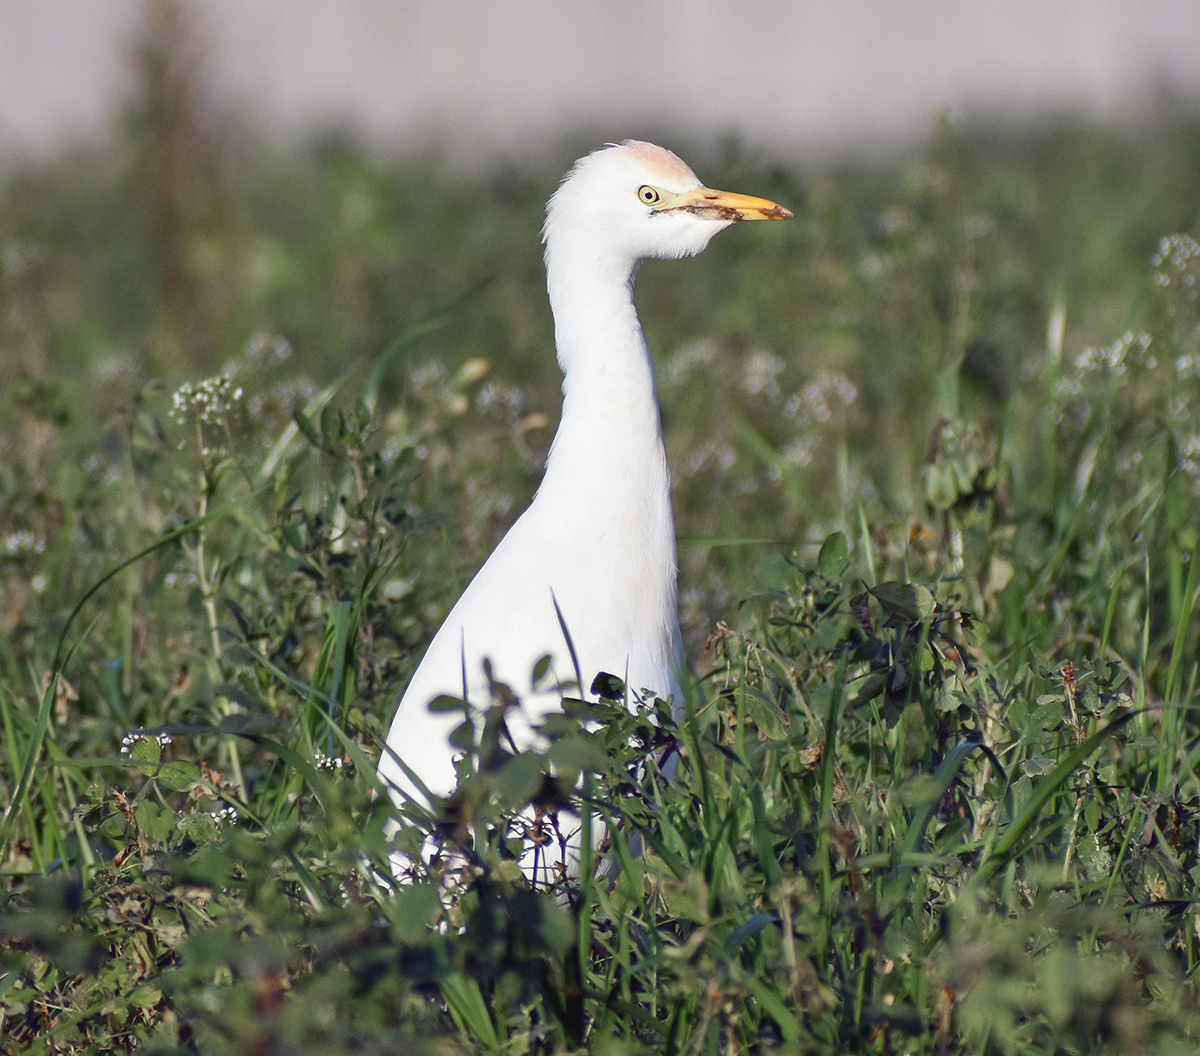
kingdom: Animalia
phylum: Chordata
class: Aves
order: Pelecaniformes
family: Ardeidae
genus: Bubulcus
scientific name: Bubulcus ibis
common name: Cattle egret
